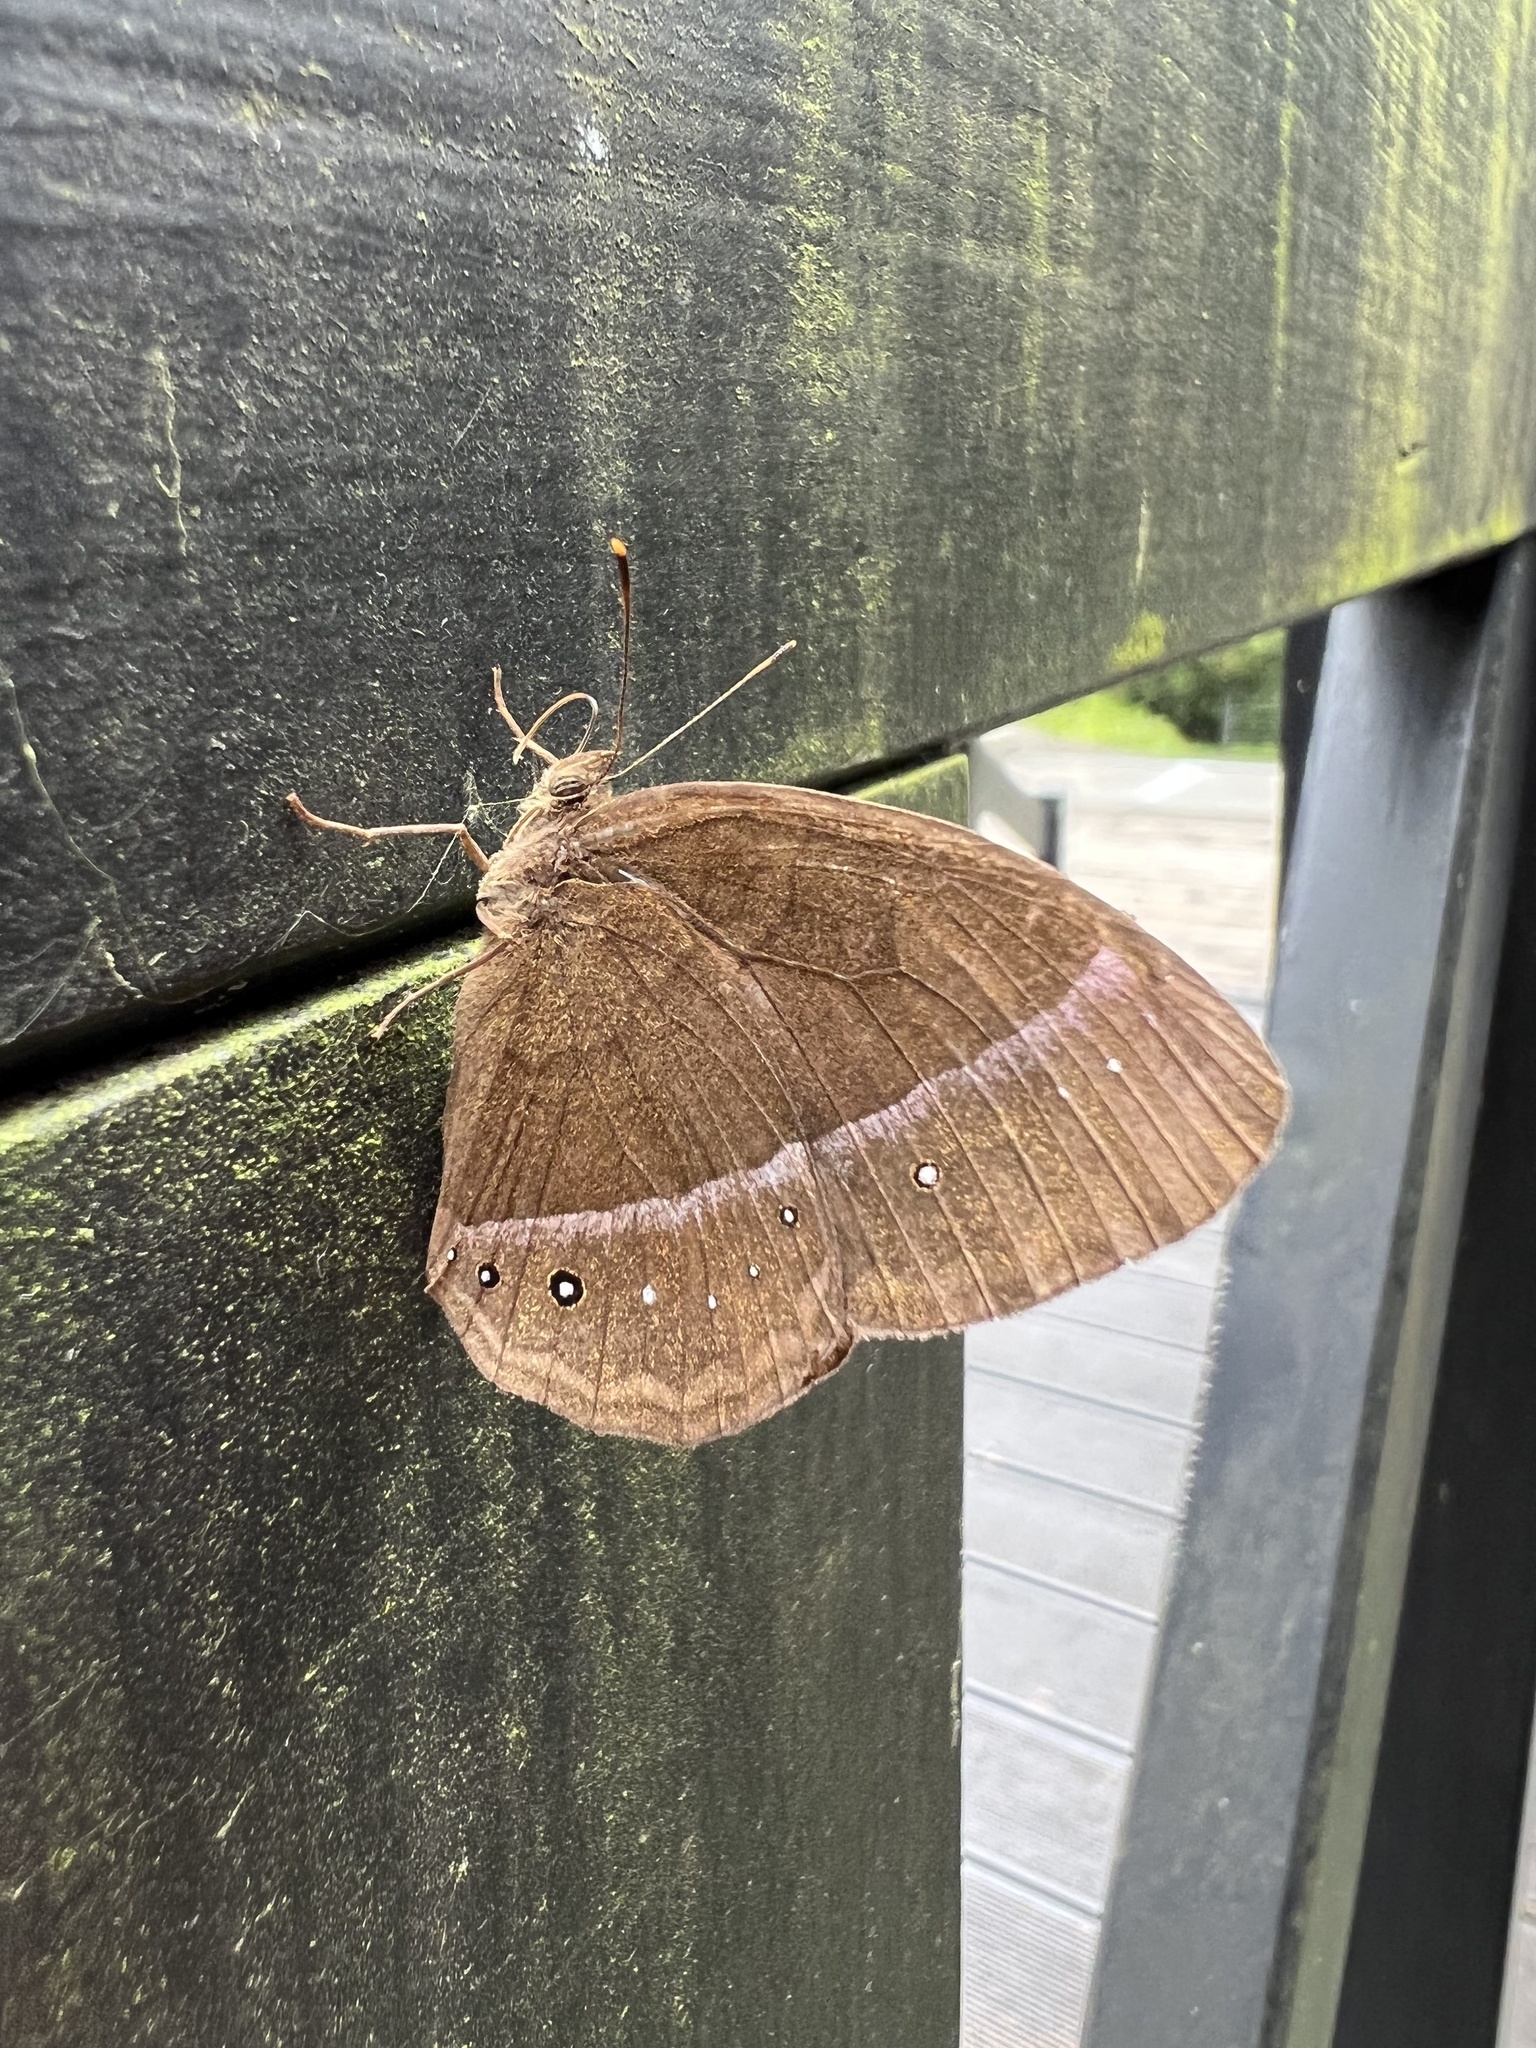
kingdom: Animalia
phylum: Arthropoda
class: Insecta
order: Lepidoptera
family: Nymphalidae
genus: Mycalesis
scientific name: Mycalesis francisca
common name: Lilacine bushbrown
